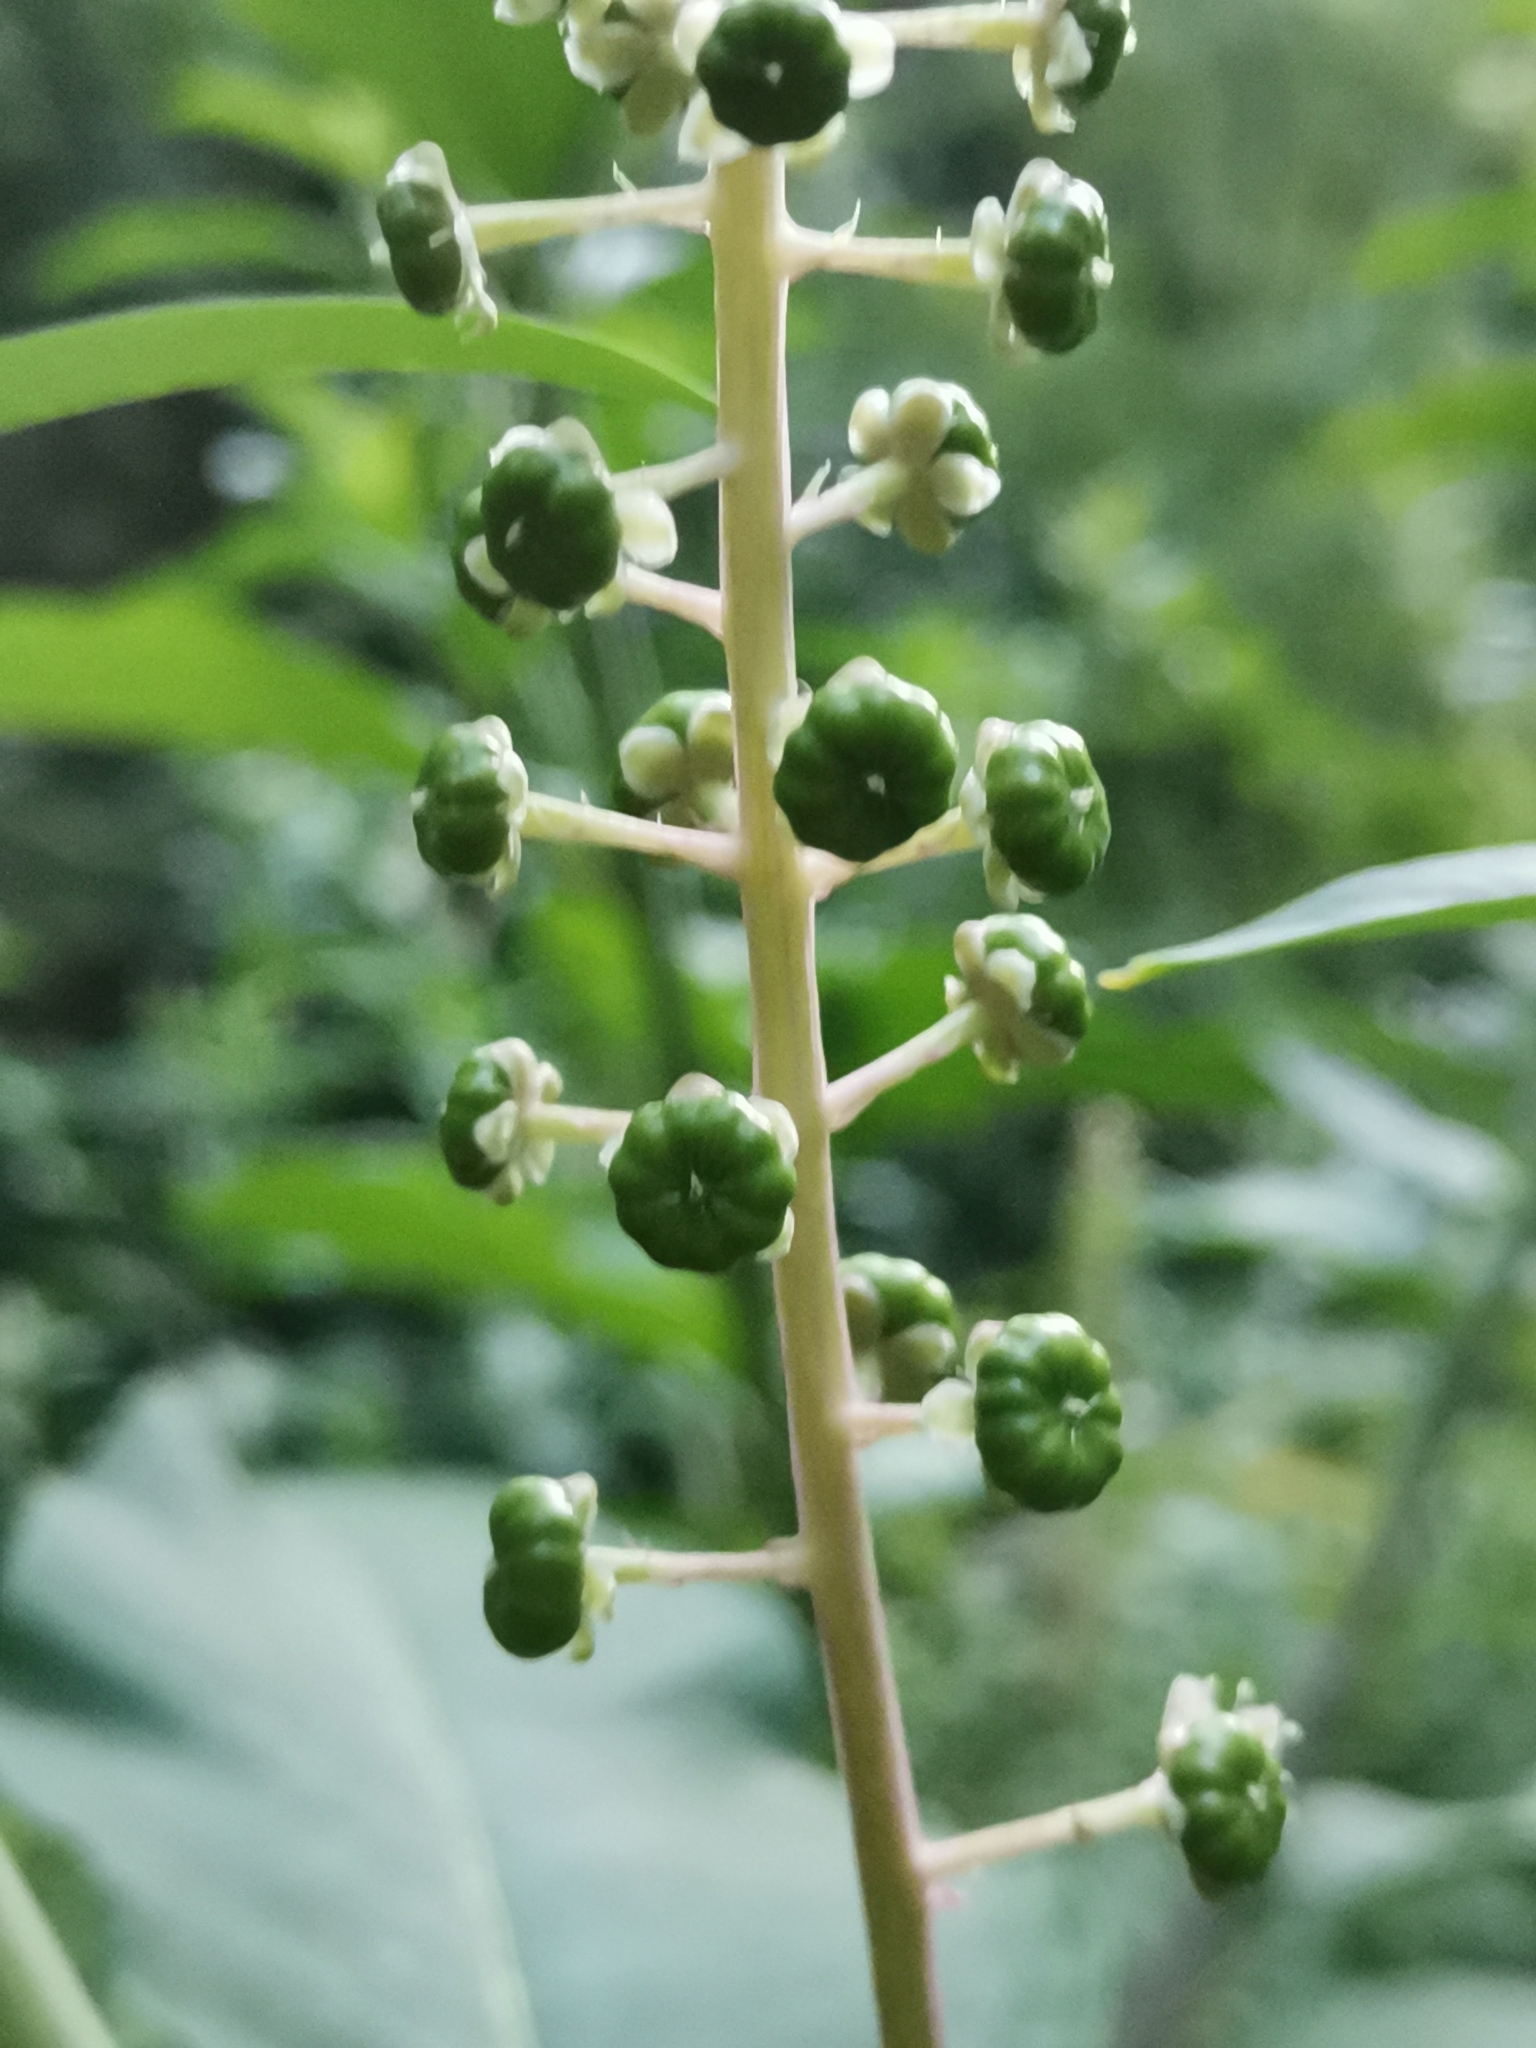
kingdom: Plantae
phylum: Tracheophyta
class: Magnoliopsida
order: Caryophyllales
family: Phytolaccaceae
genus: Phytolacca
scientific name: Phytolacca americana
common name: American pokeweed
